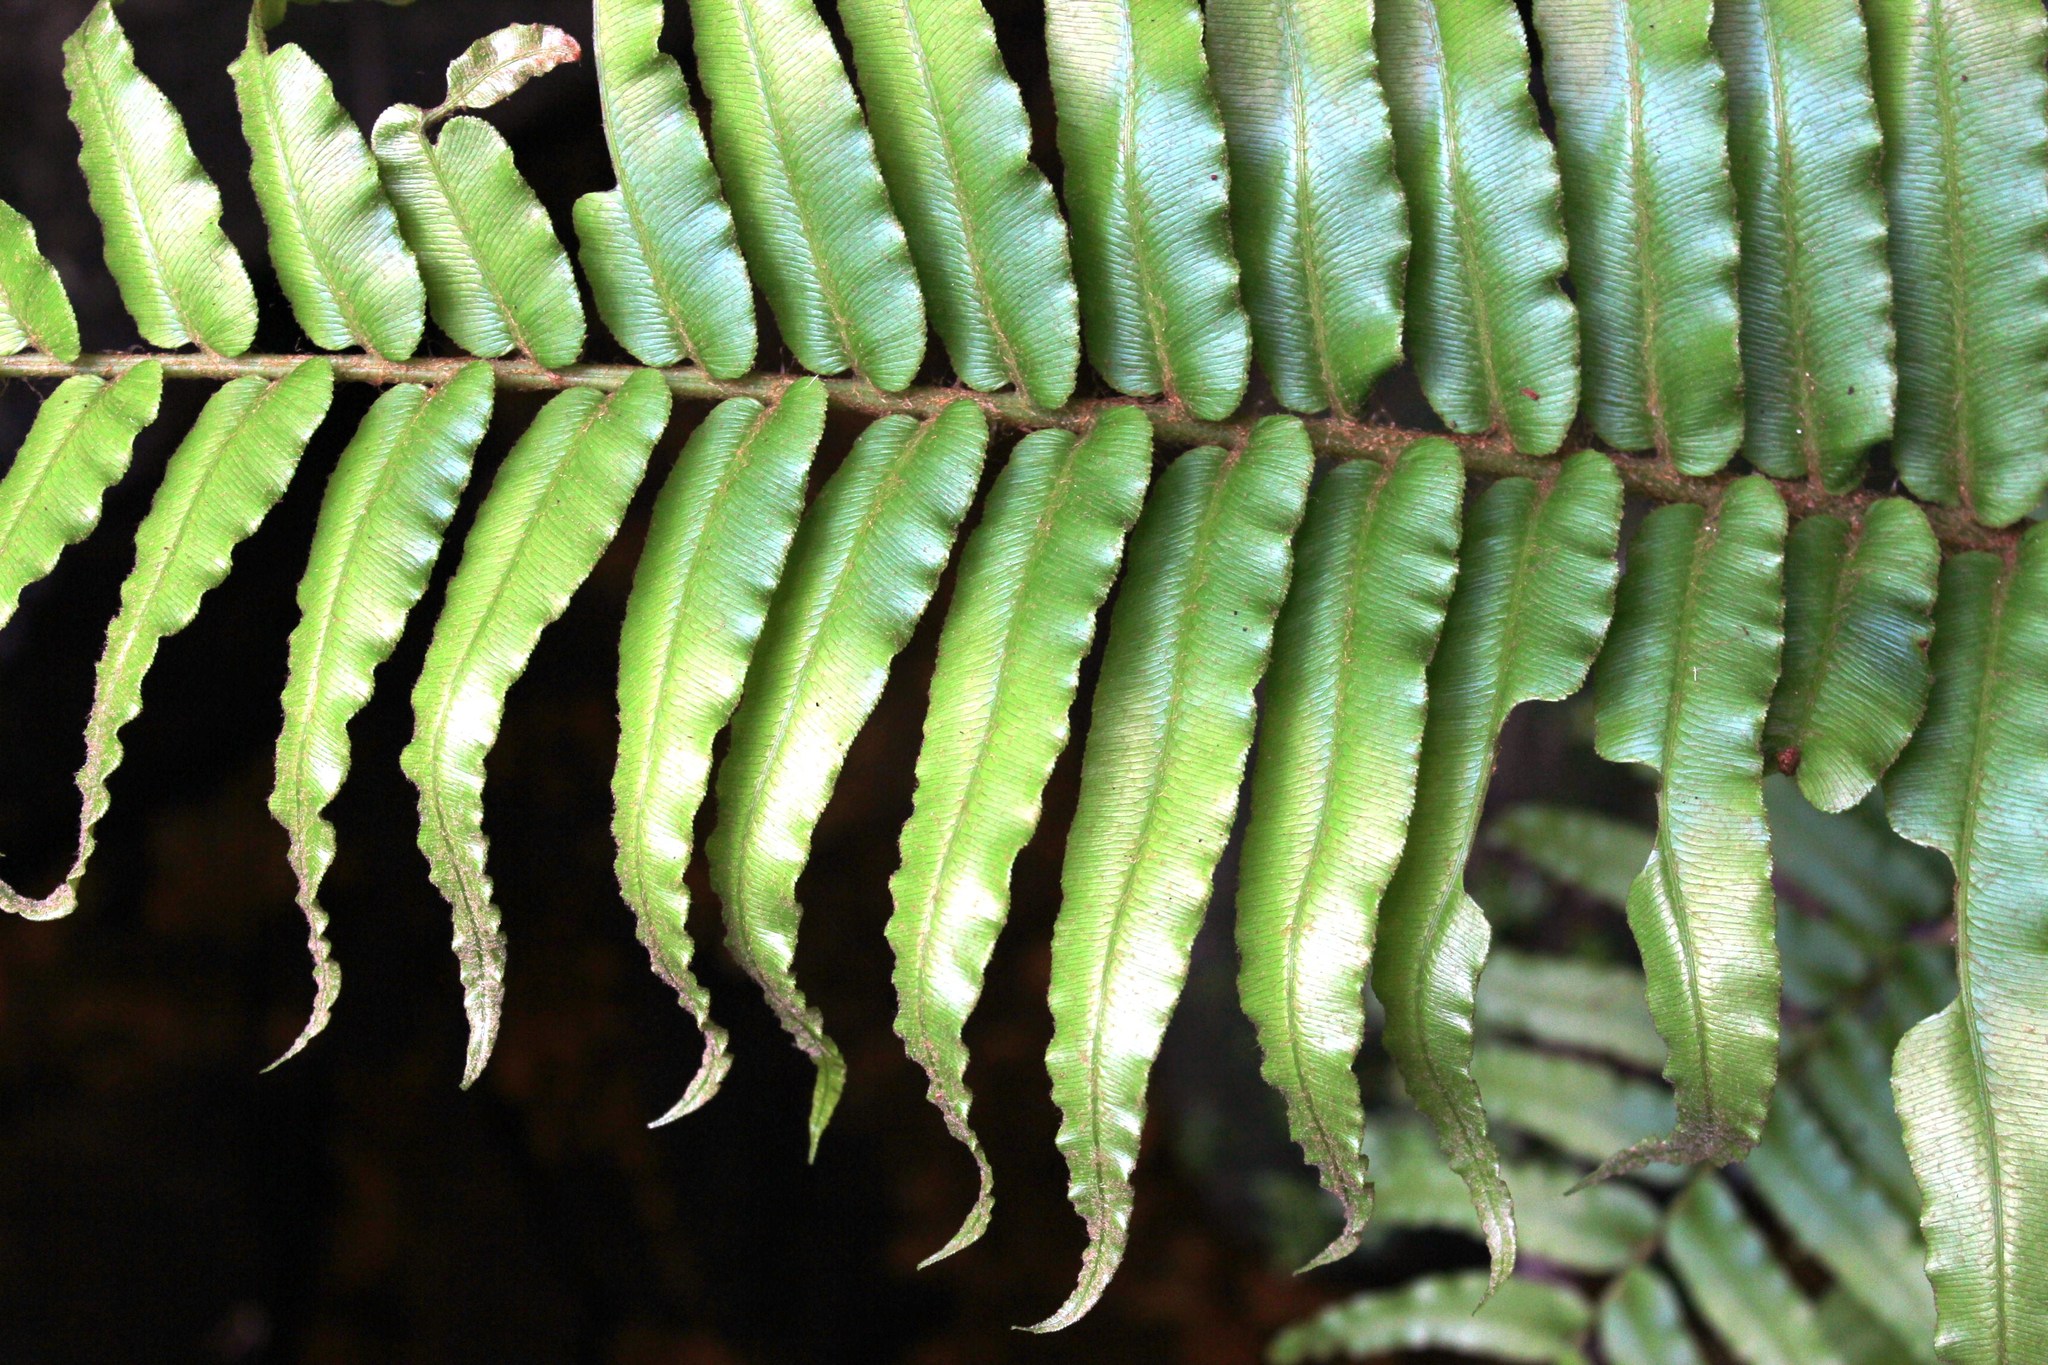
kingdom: Plantae
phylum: Tracheophyta
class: Polypodiopsida
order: Polypodiales
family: Blechnaceae
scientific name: Blechnaceae
